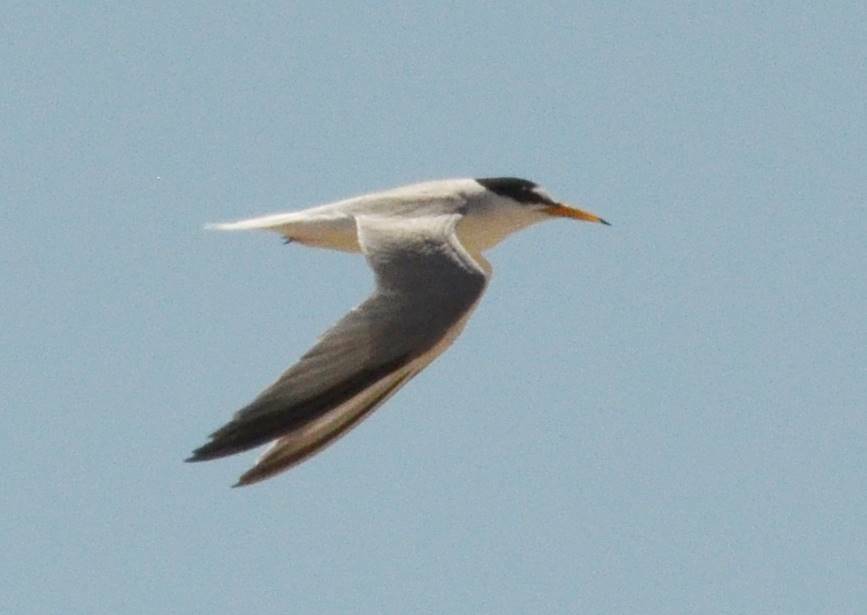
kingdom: Animalia
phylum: Chordata
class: Aves
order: Charadriiformes
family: Laridae
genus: Sternula
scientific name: Sternula albifrons
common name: Little tern
